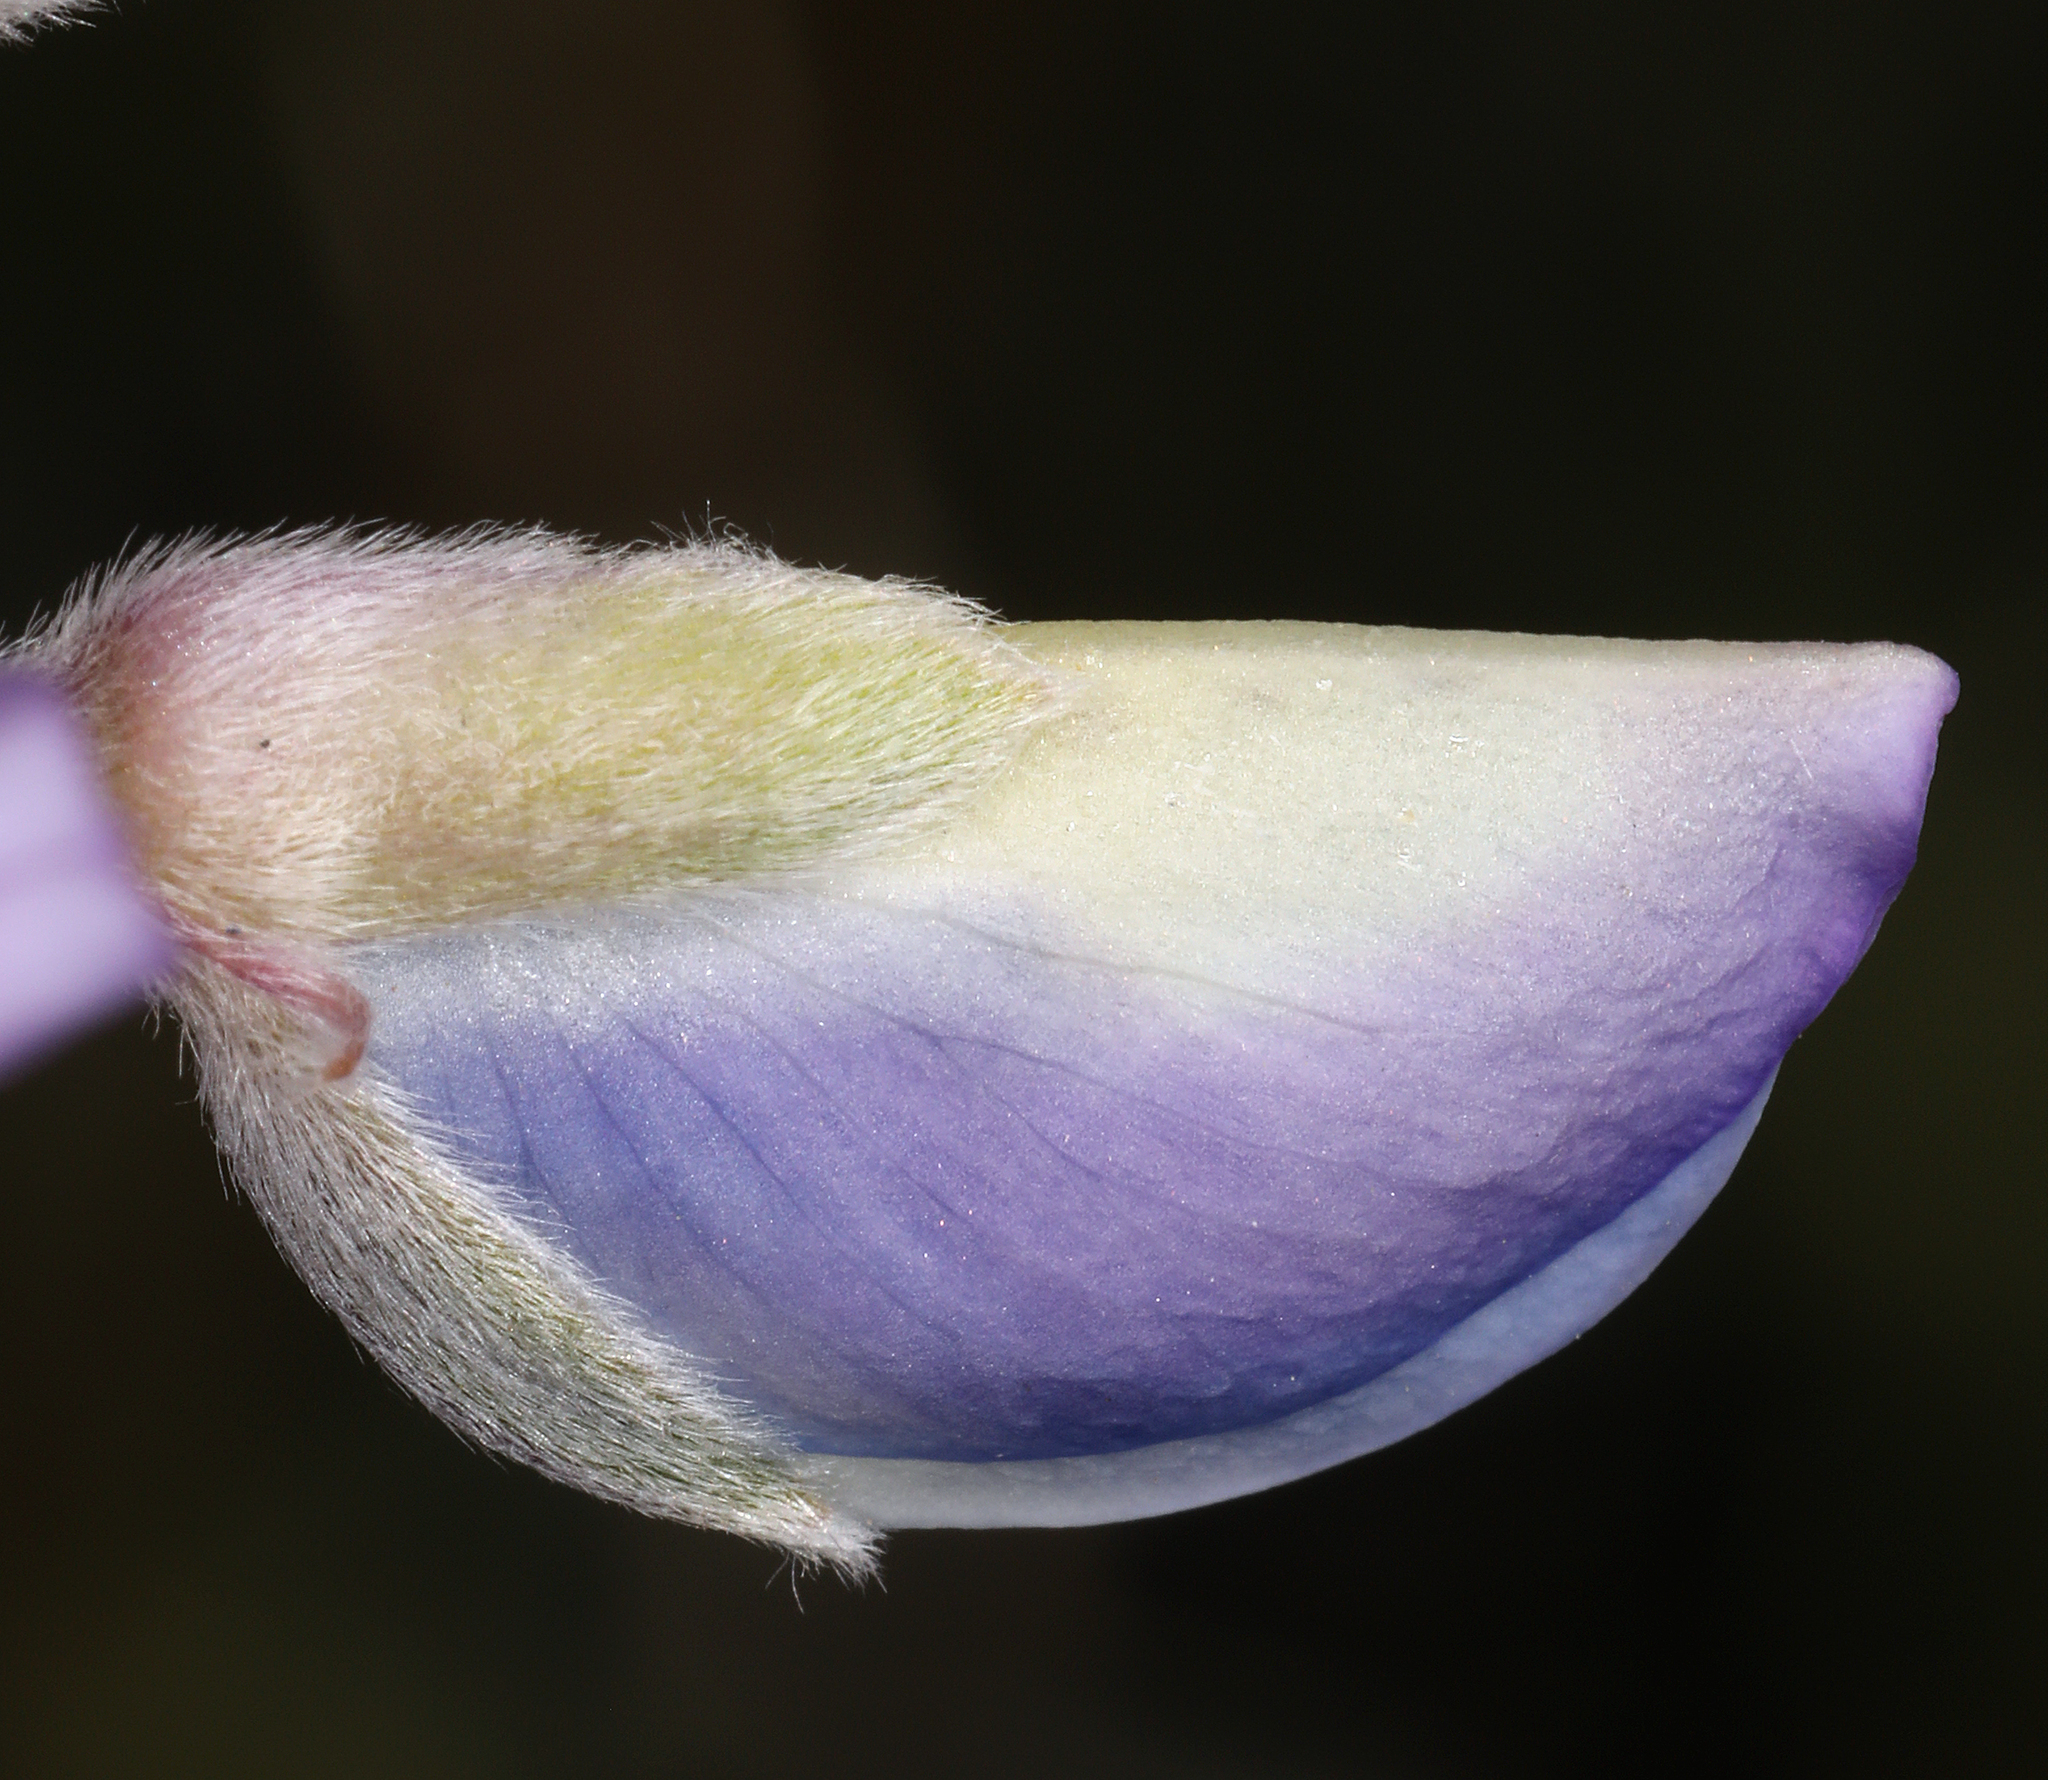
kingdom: Plantae
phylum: Tracheophyta
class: Magnoliopsida
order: Fabales
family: Fabaceae
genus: Lupinus
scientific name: Lupinus excubitus
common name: Grape soda lupine
